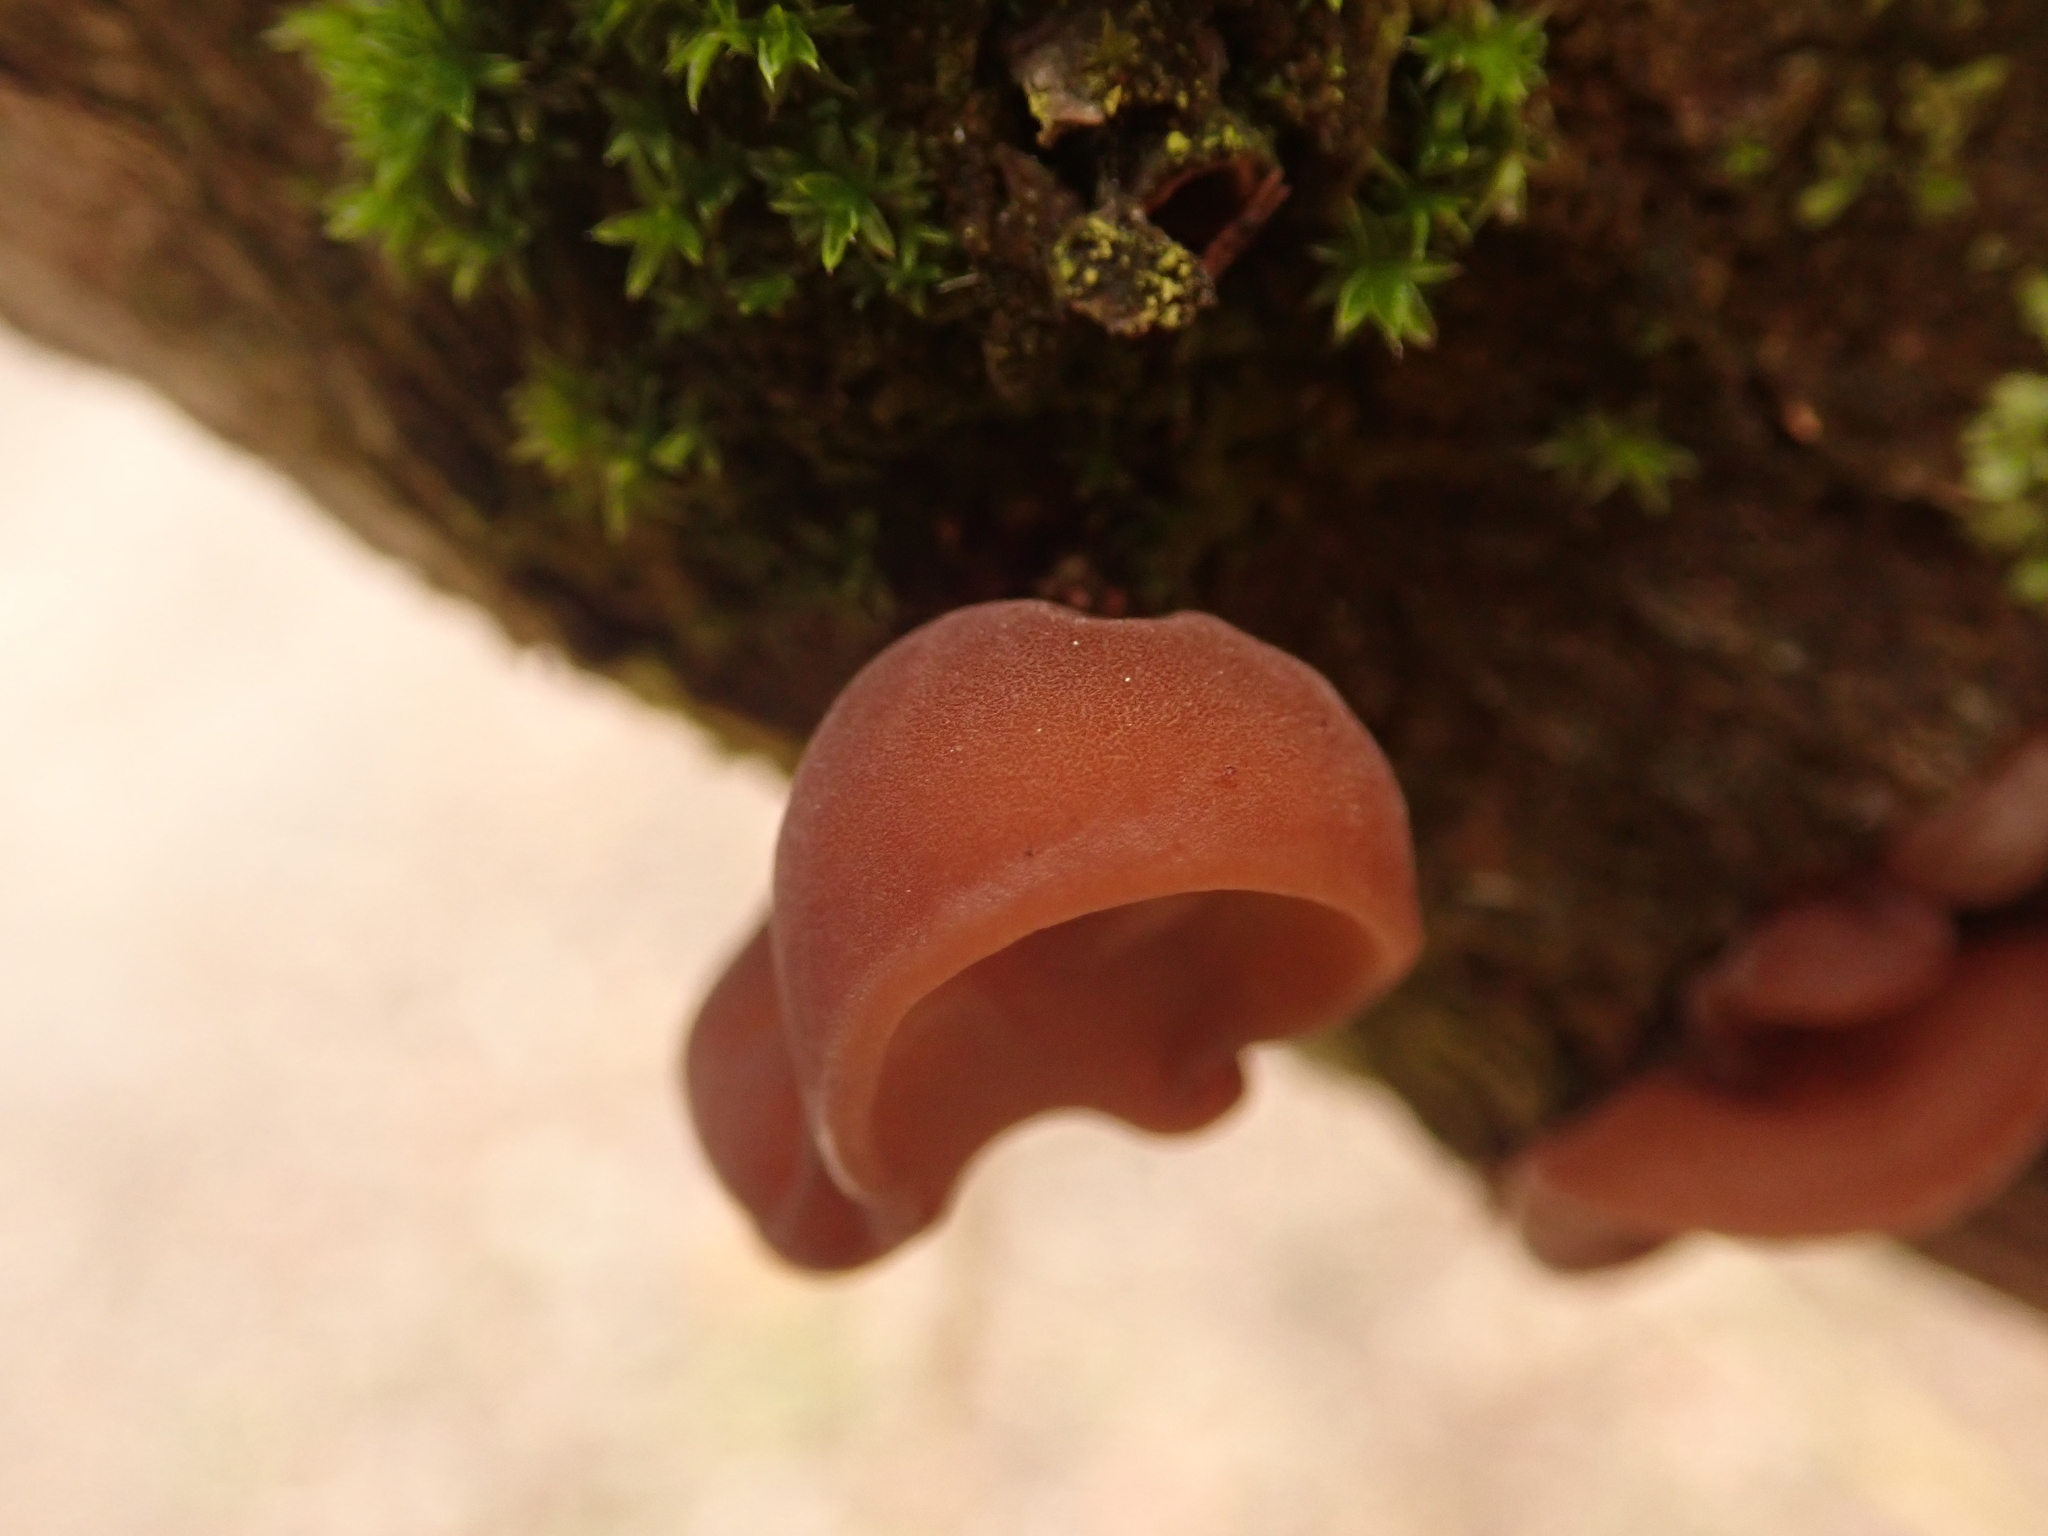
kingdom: Fungi
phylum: Basidiomycota
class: Agaricomycetes
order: Auriculariales
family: Auriculariaceae
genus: Auricularia
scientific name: Auricularia auricula-judae
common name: Jelly ear
